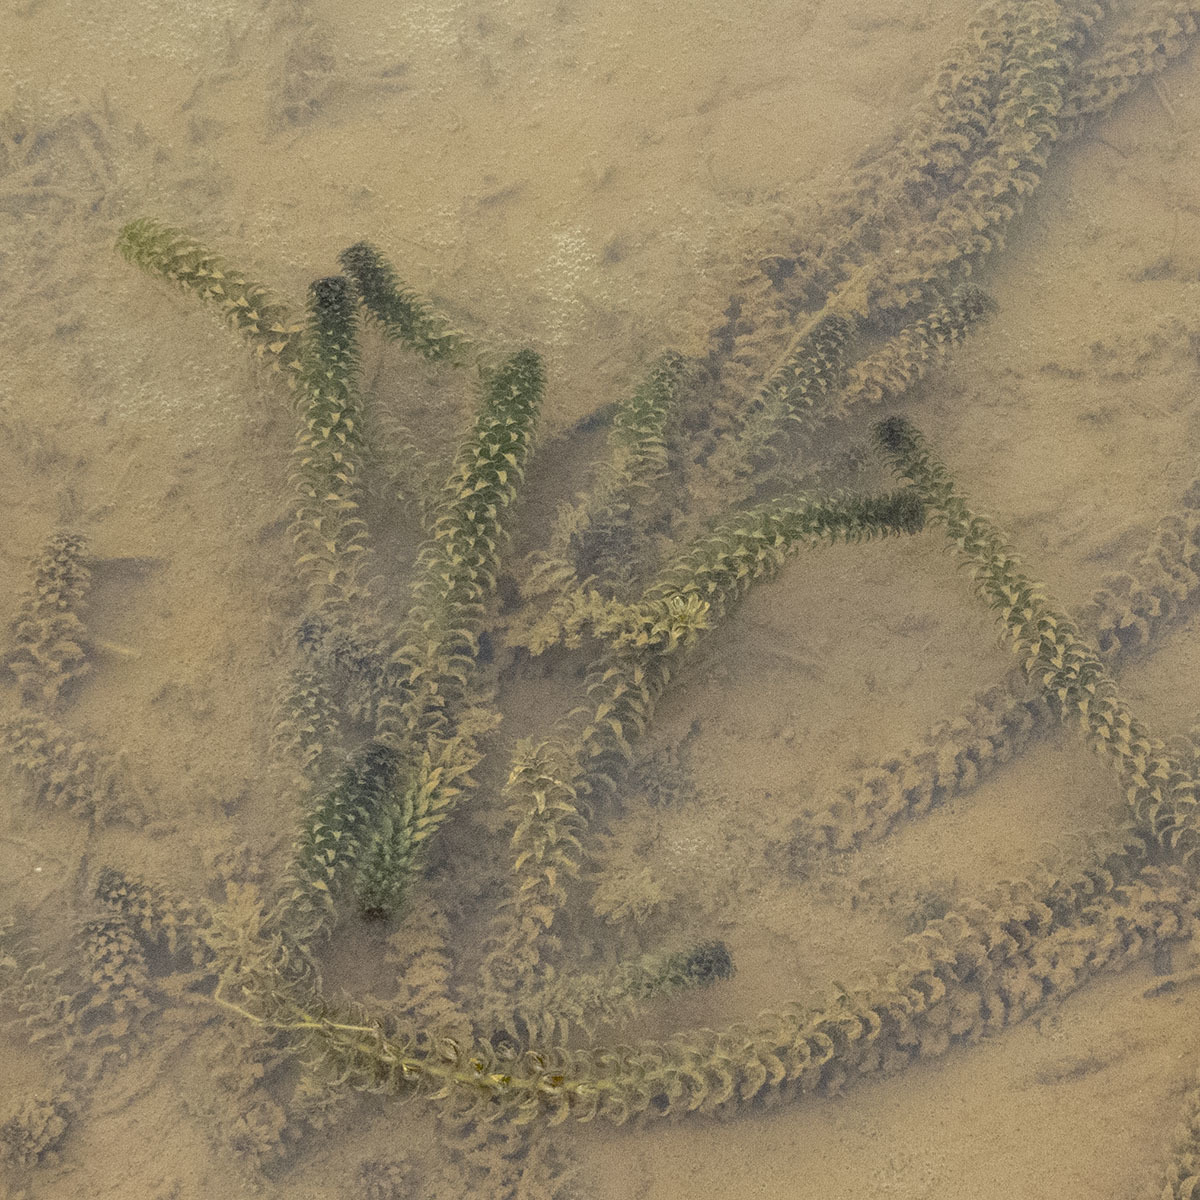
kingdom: Plantae
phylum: Tracheophyta
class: Liliopsida
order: Alismatales
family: Hydrocharitaceae
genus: Hydrilla
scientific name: Hydrilla verticillata
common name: Florida-elodea
